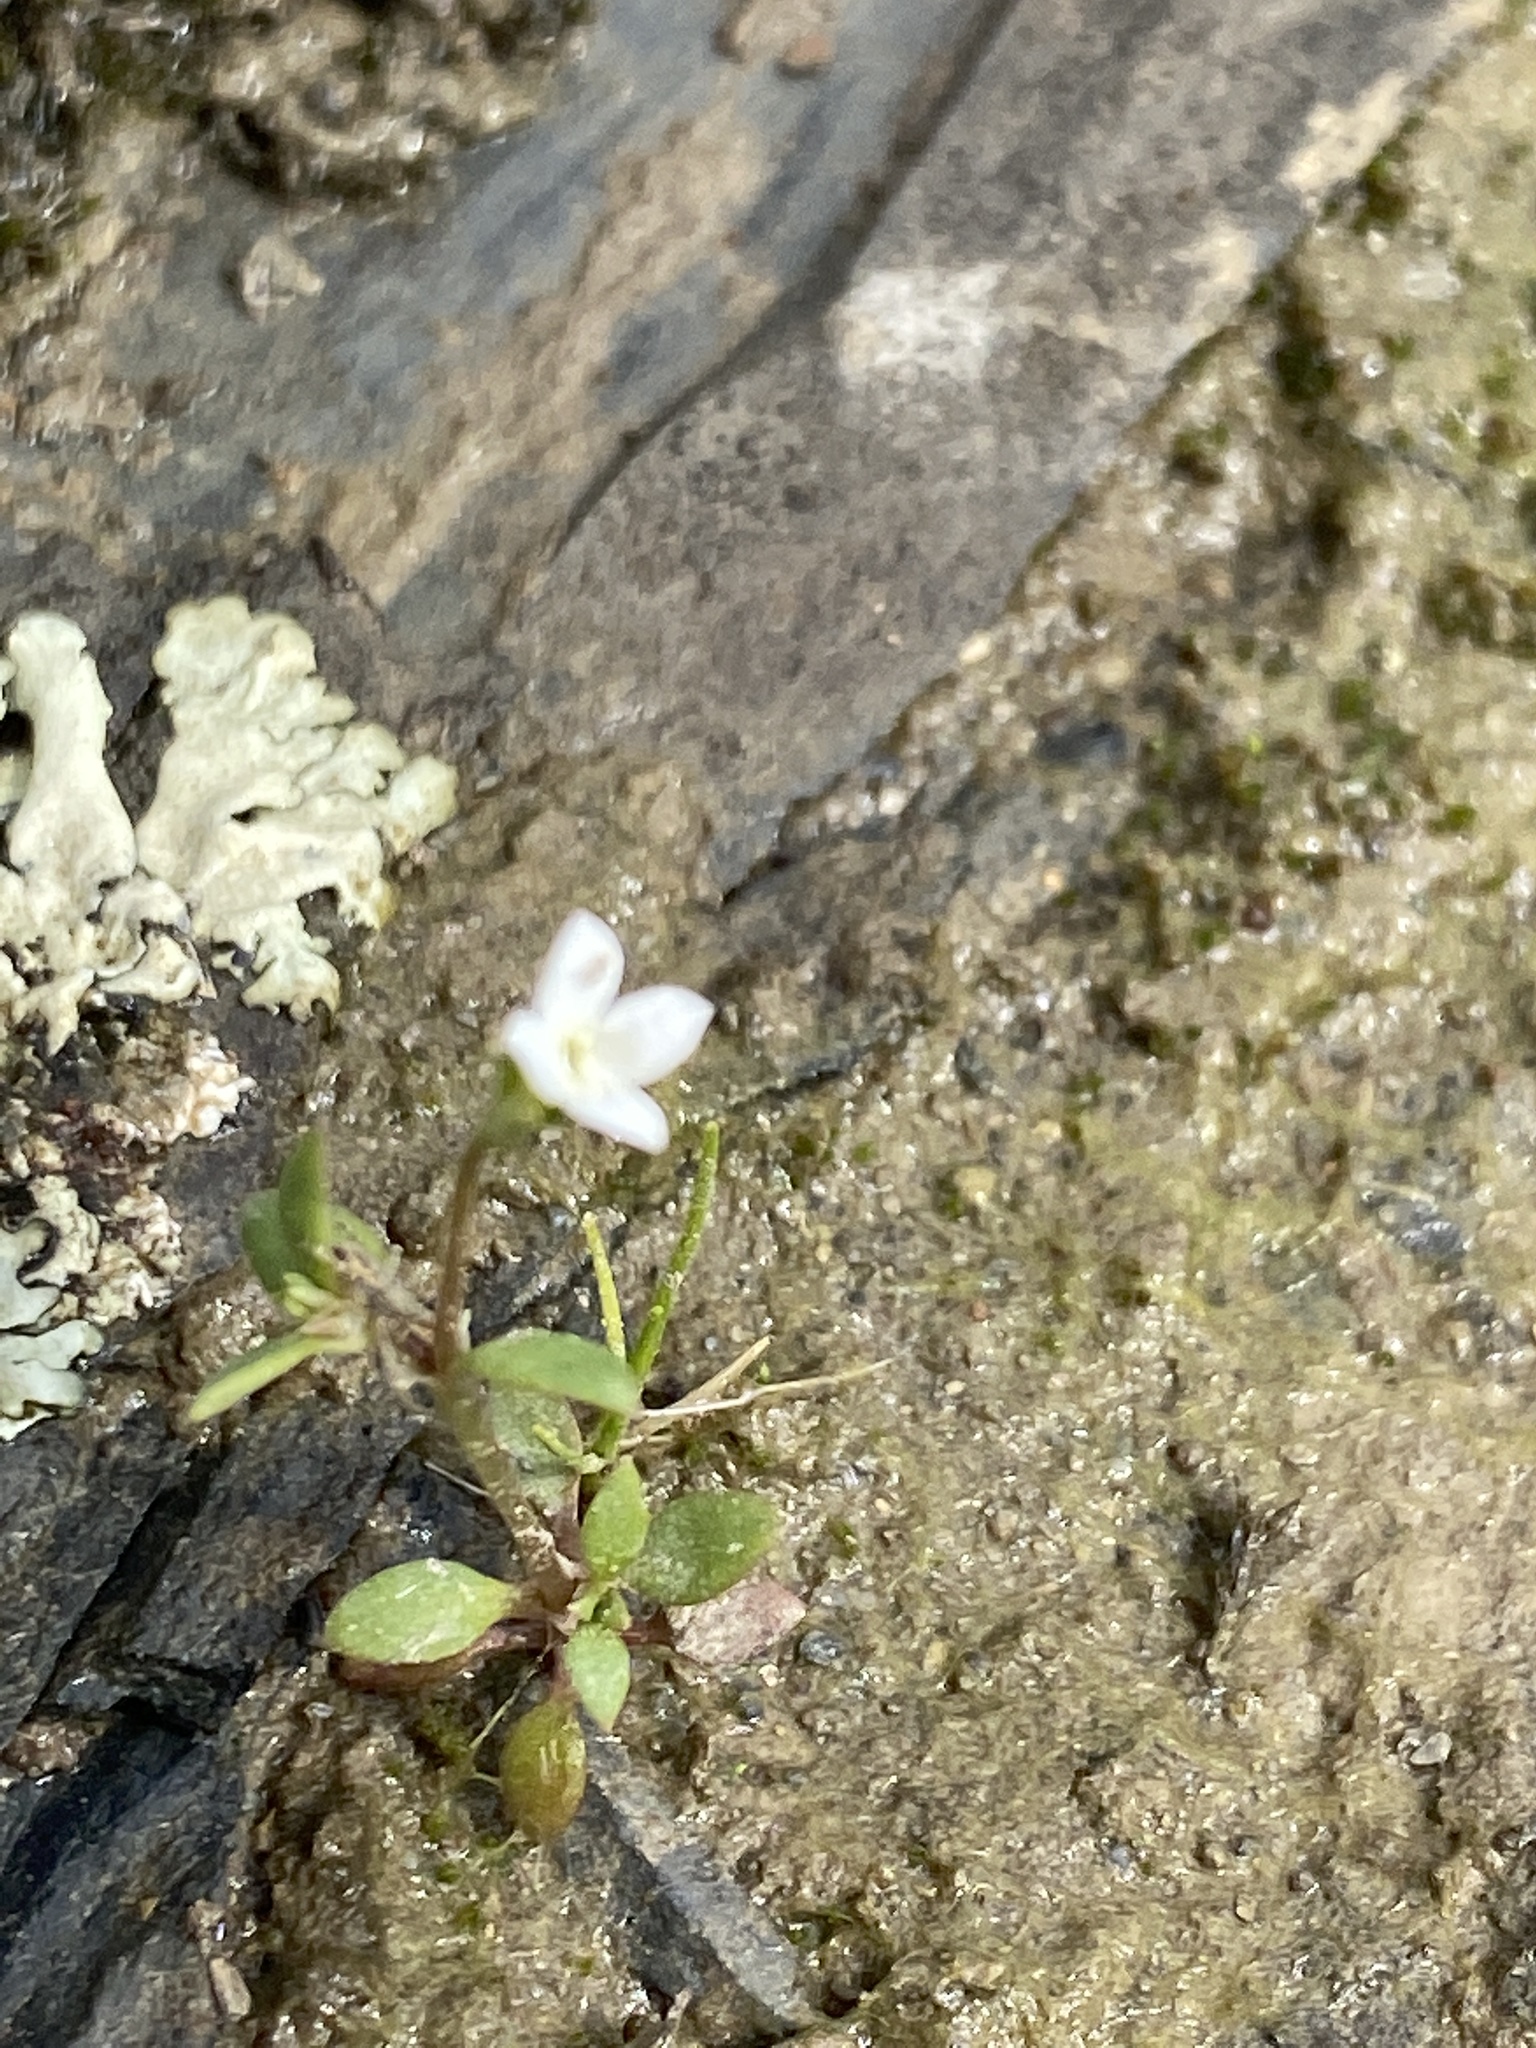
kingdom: Plantae
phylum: Tracheophyta
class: Magnoliopsida
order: Gentianales
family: Rubiaceae
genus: Houstonia
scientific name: Houstonia micrantha
